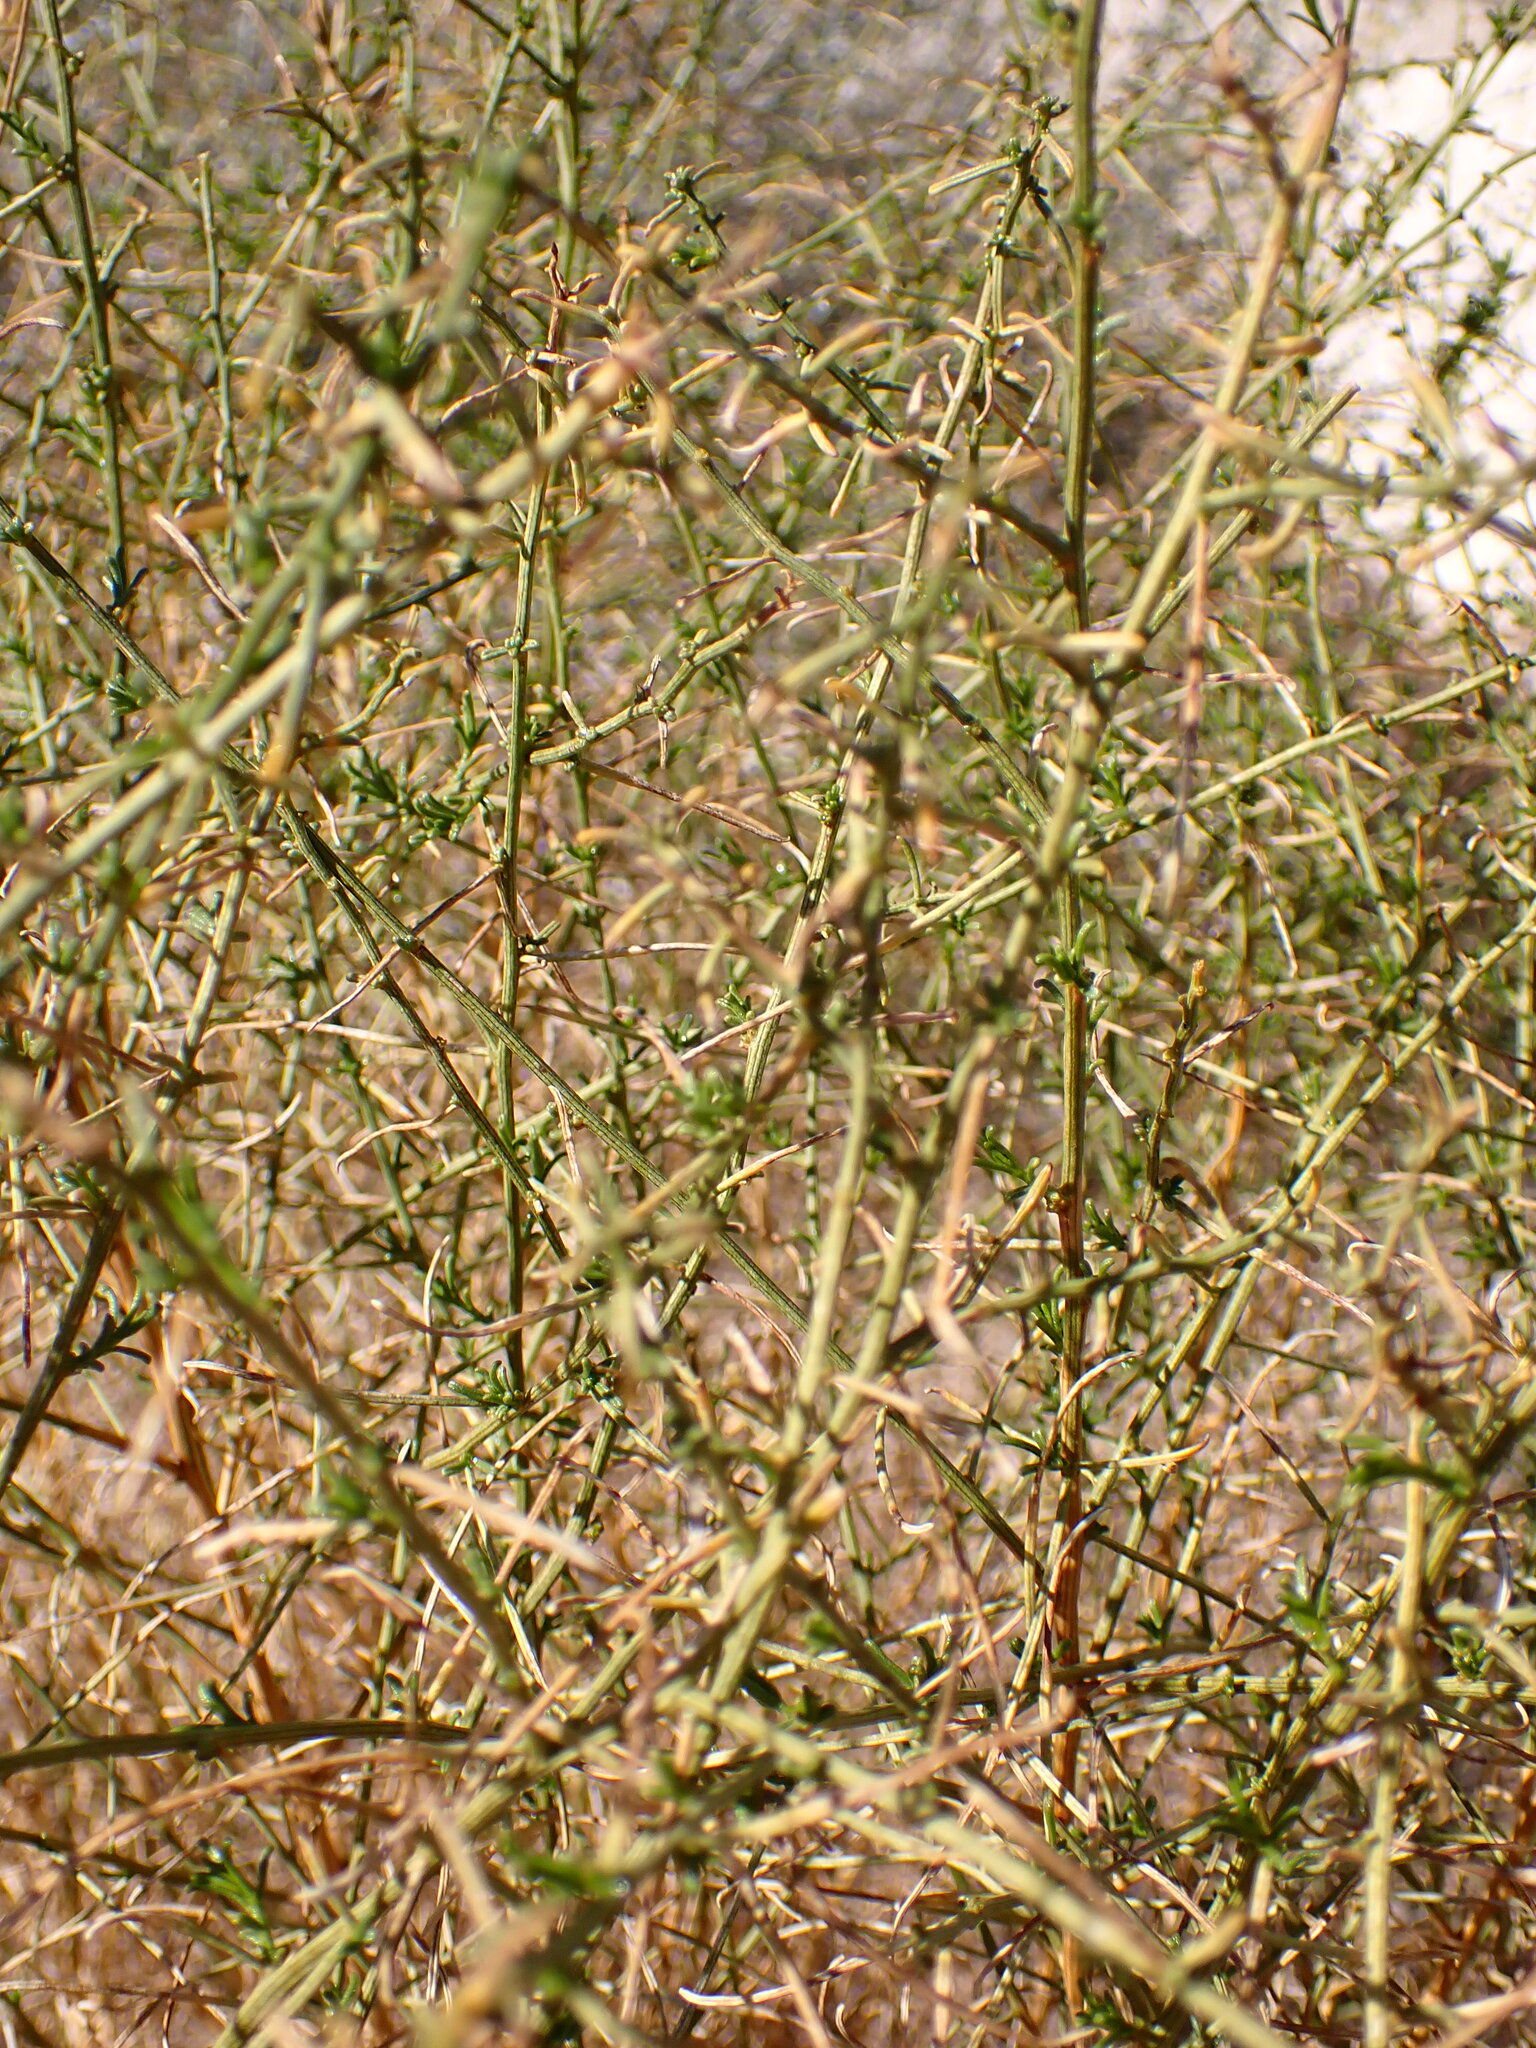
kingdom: Plantae
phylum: Tracheophyta
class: Magnoliopsida
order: Asterales
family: Asteraceae
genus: Ambrosia
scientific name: Ambrosia salsola
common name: Burrobrush
